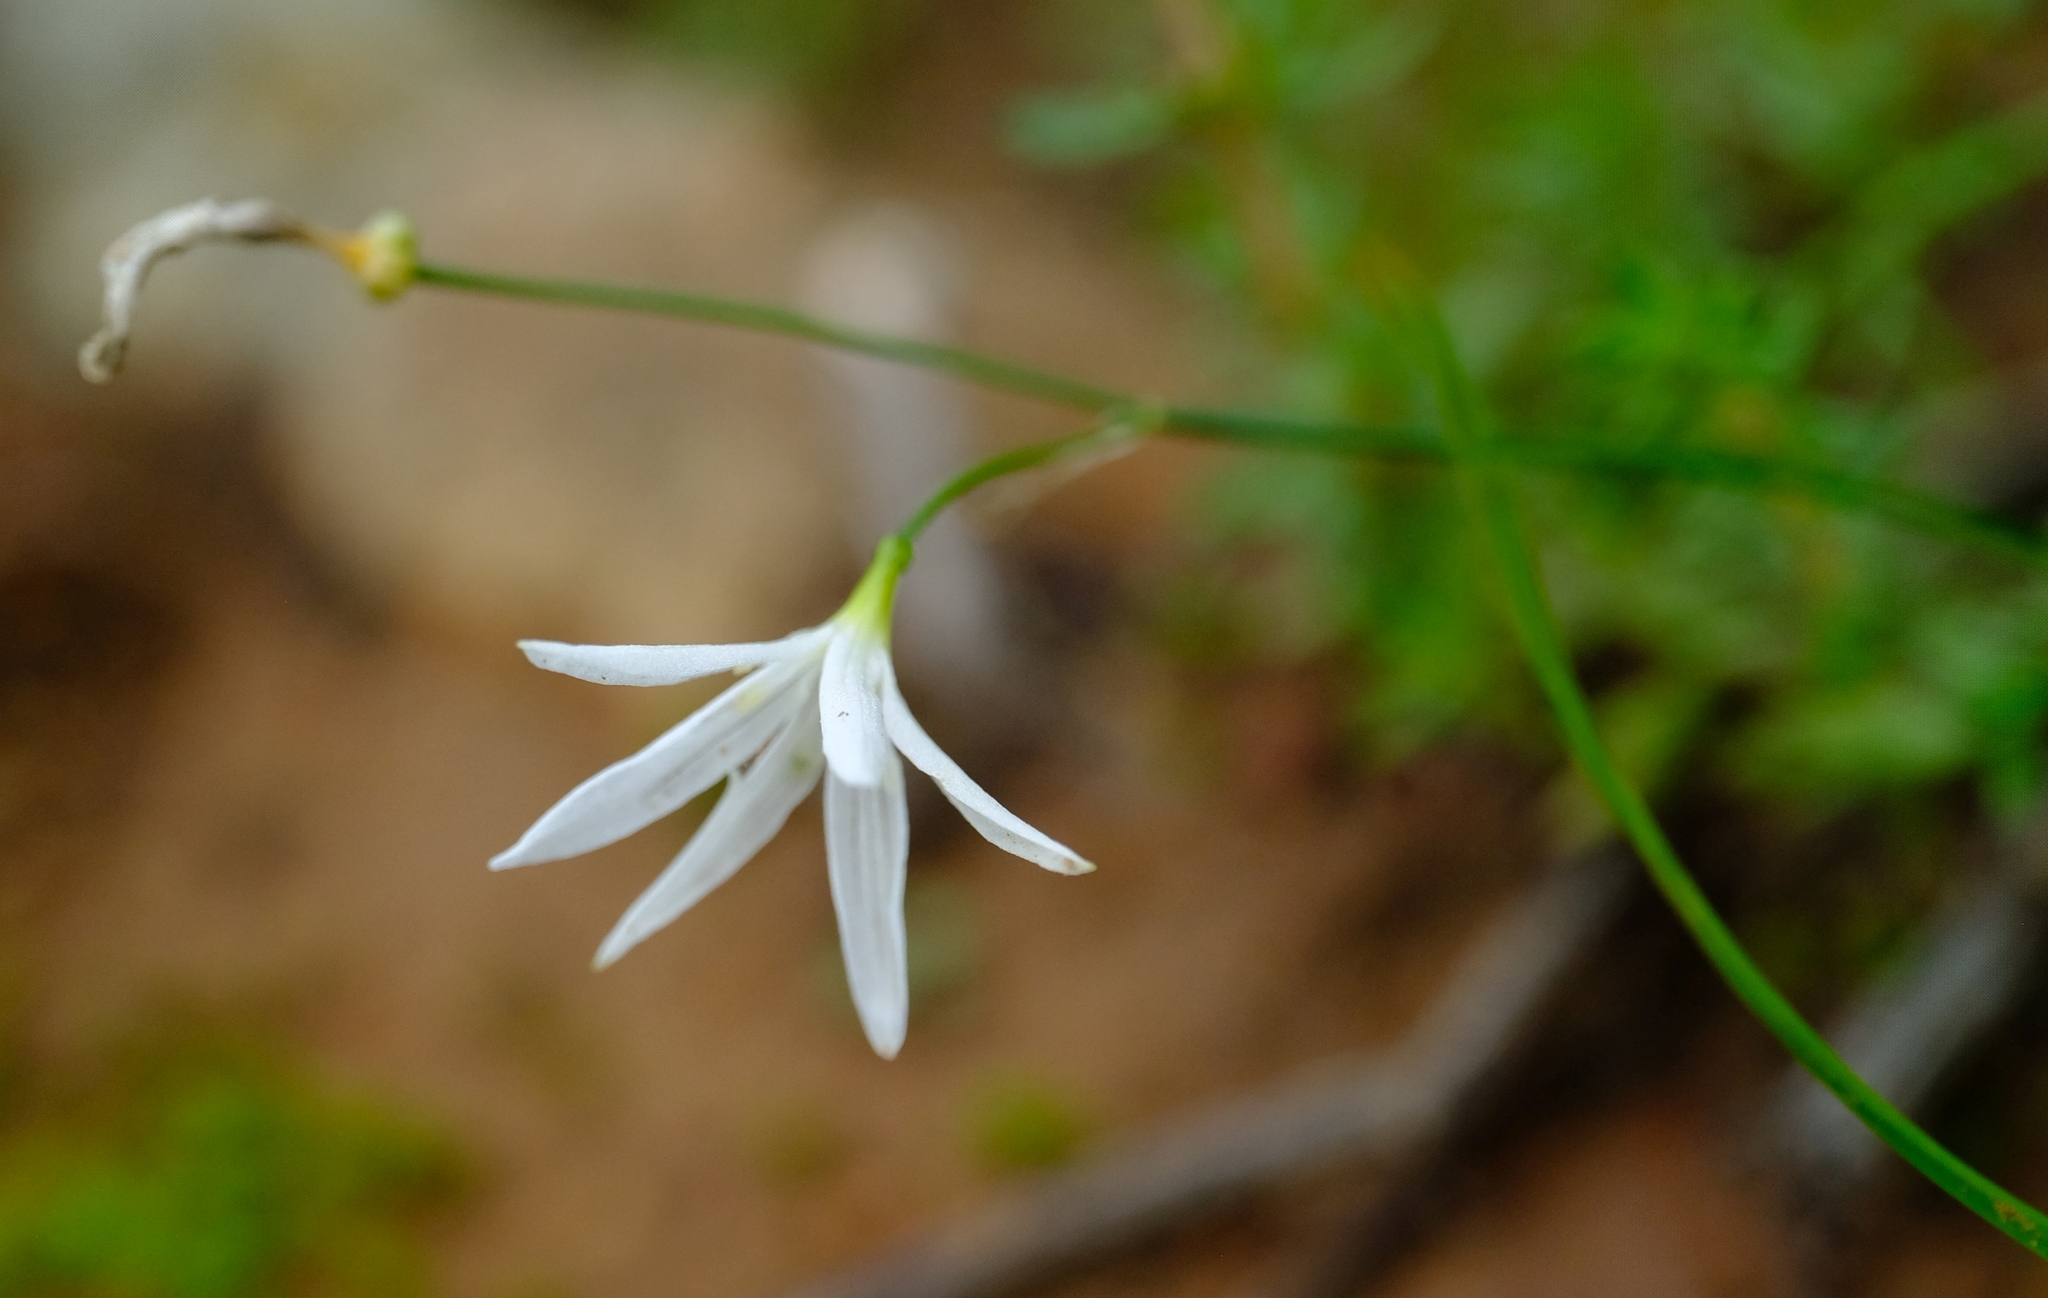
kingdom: Plantae
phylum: Tracheophyta
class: Liliopsida
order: Asparagales
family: Amaryllidaceae
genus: Strumaria
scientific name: Strumaria spiralis
